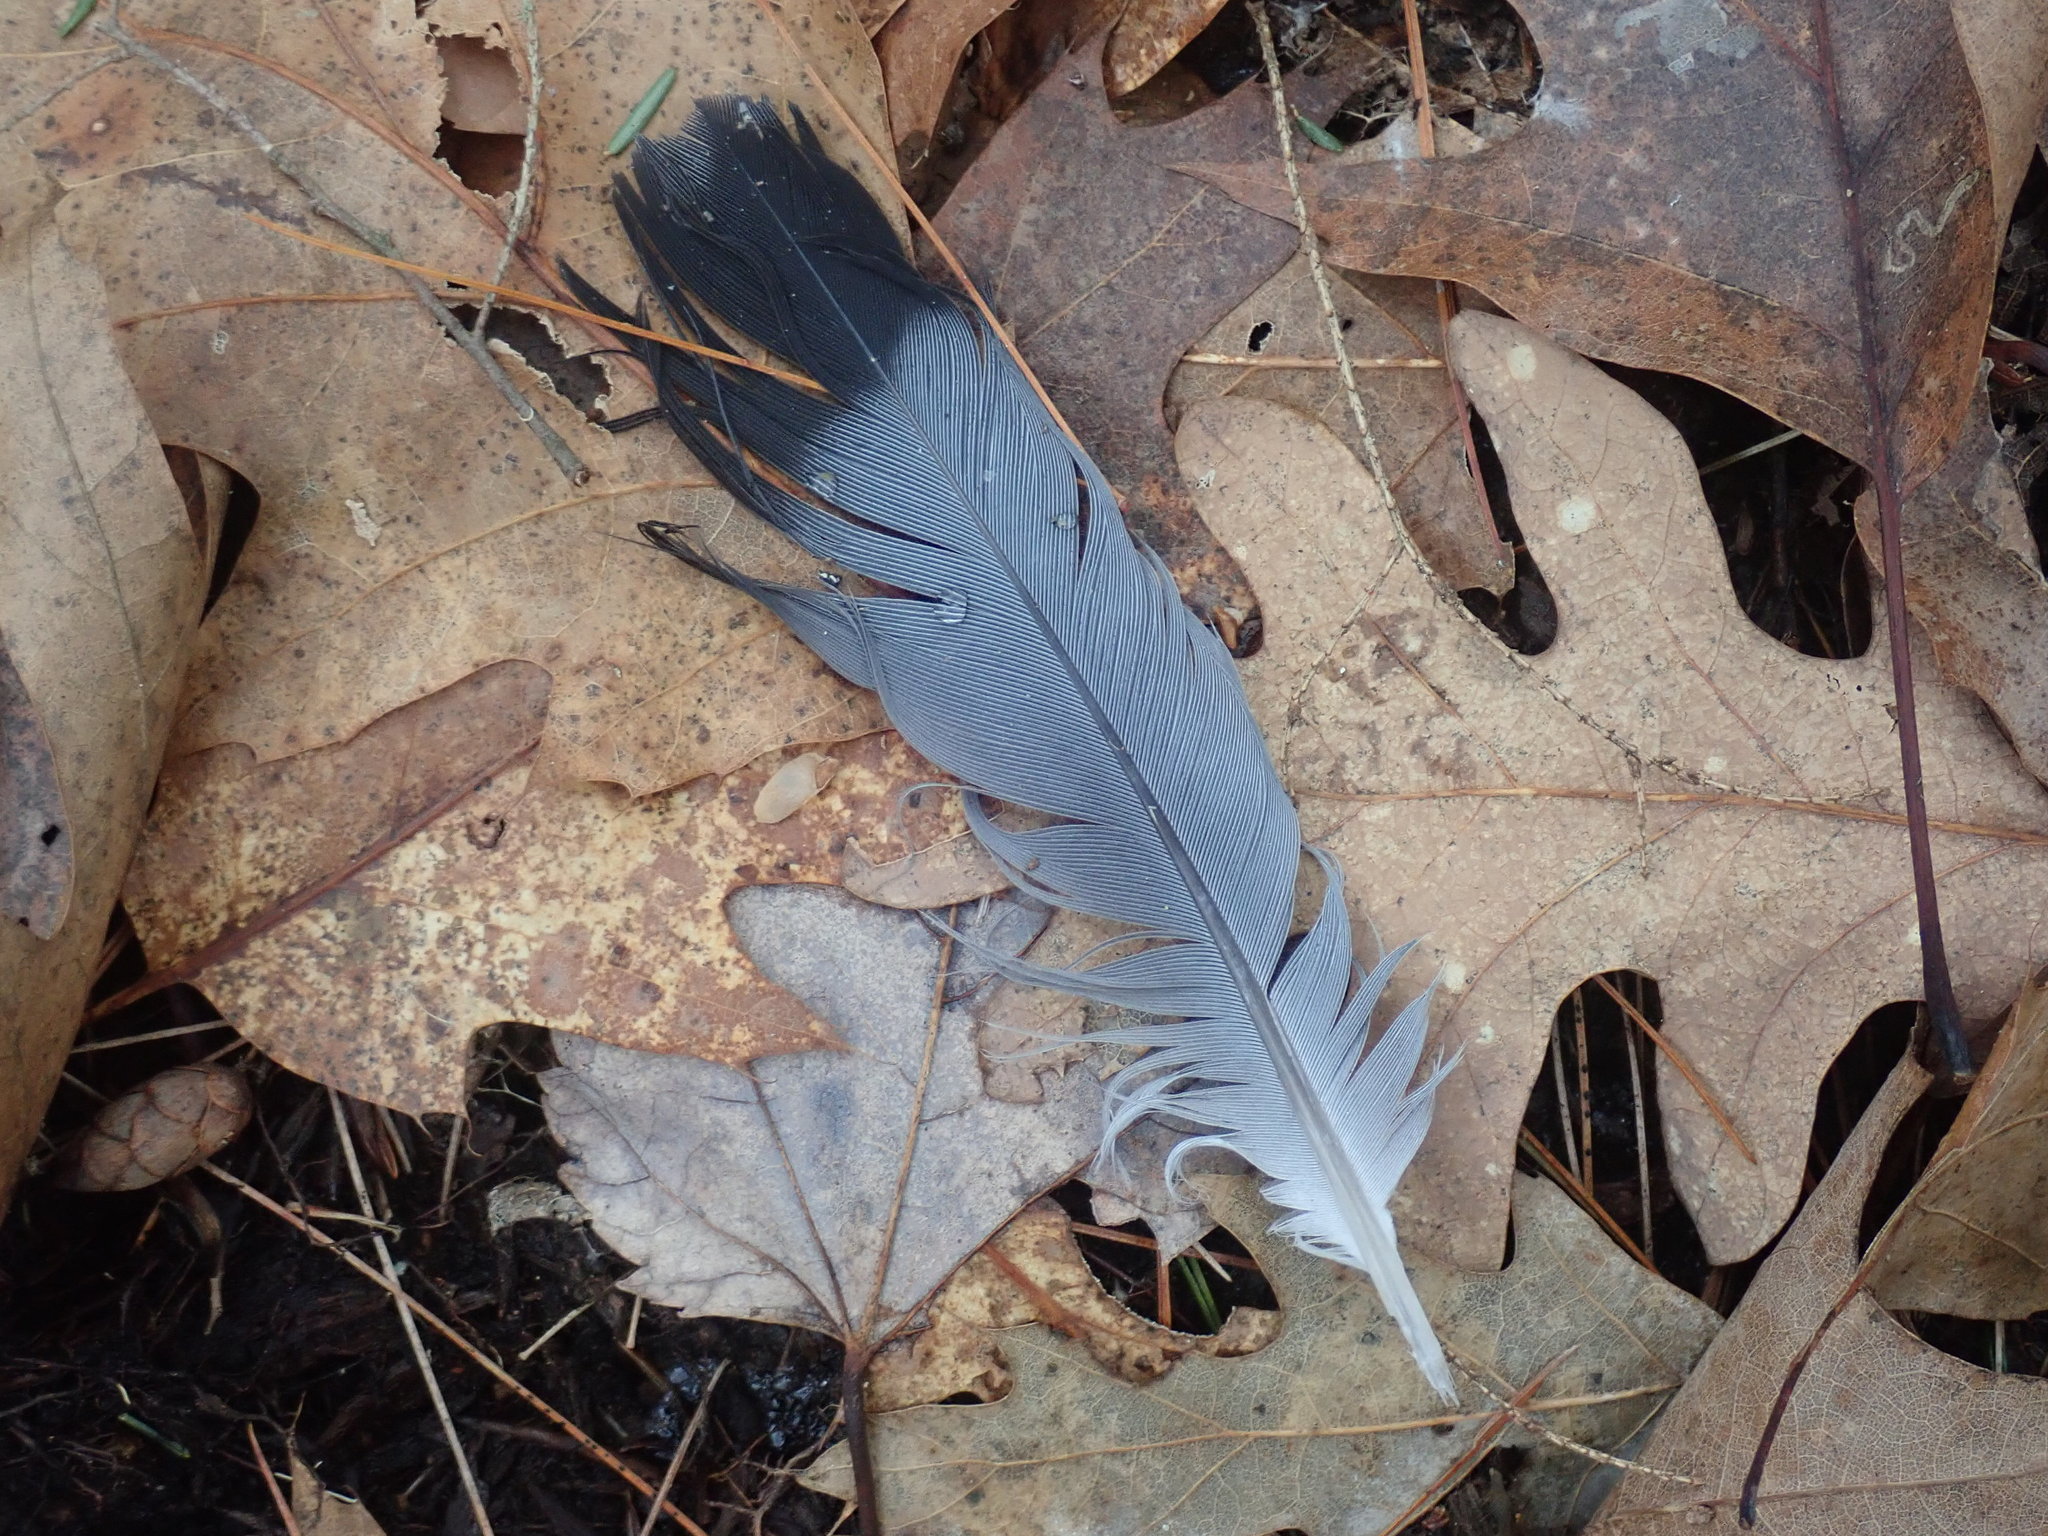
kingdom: Animalia
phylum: Chordata
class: Aves
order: Columbiformes
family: Columbidae
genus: Columba
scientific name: Columba livia
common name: Rock pigeon
